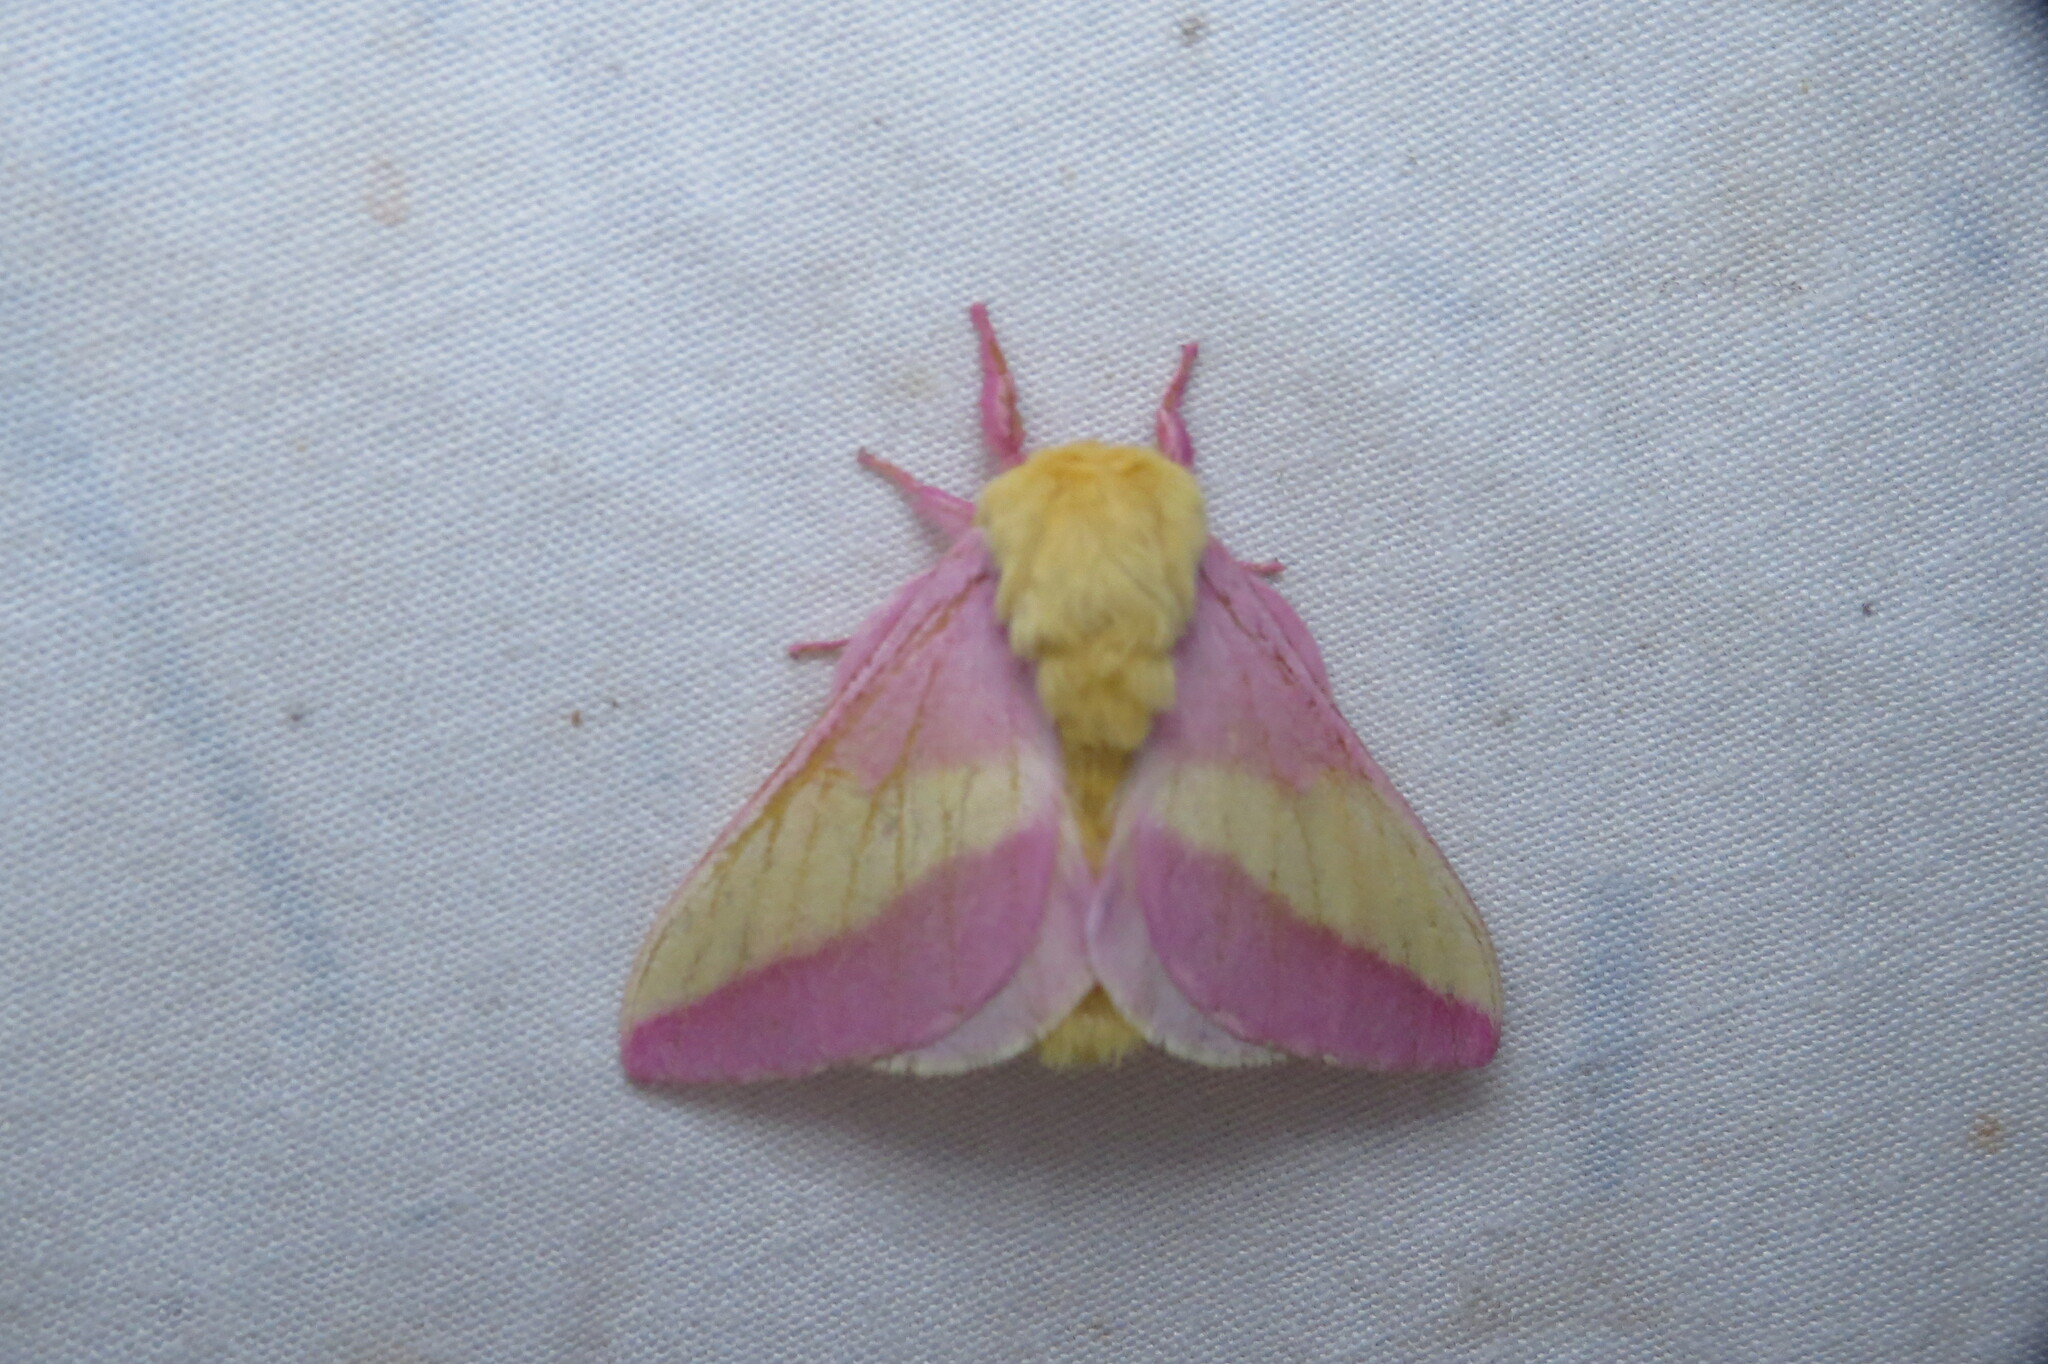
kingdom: Animalia
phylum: Arthropoda
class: Insecta
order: Lepidoptera
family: Saturniidae
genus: Dryocampa
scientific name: Dryocampa rubicunda
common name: Rosy maple moth
